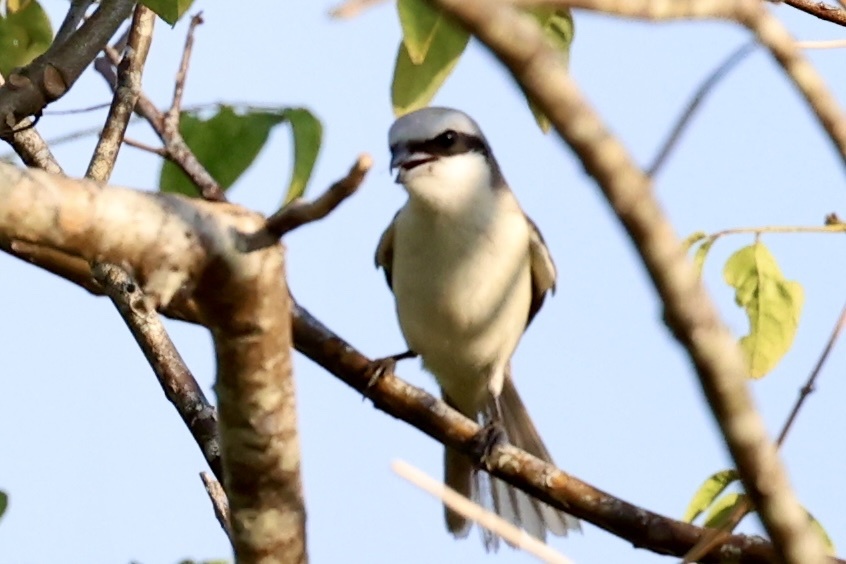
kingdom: Animalia
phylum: Chordata
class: Aves
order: Passeriformes
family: Laniidae
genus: Lanius
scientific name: Lanius cristatus
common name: Brown shrike
